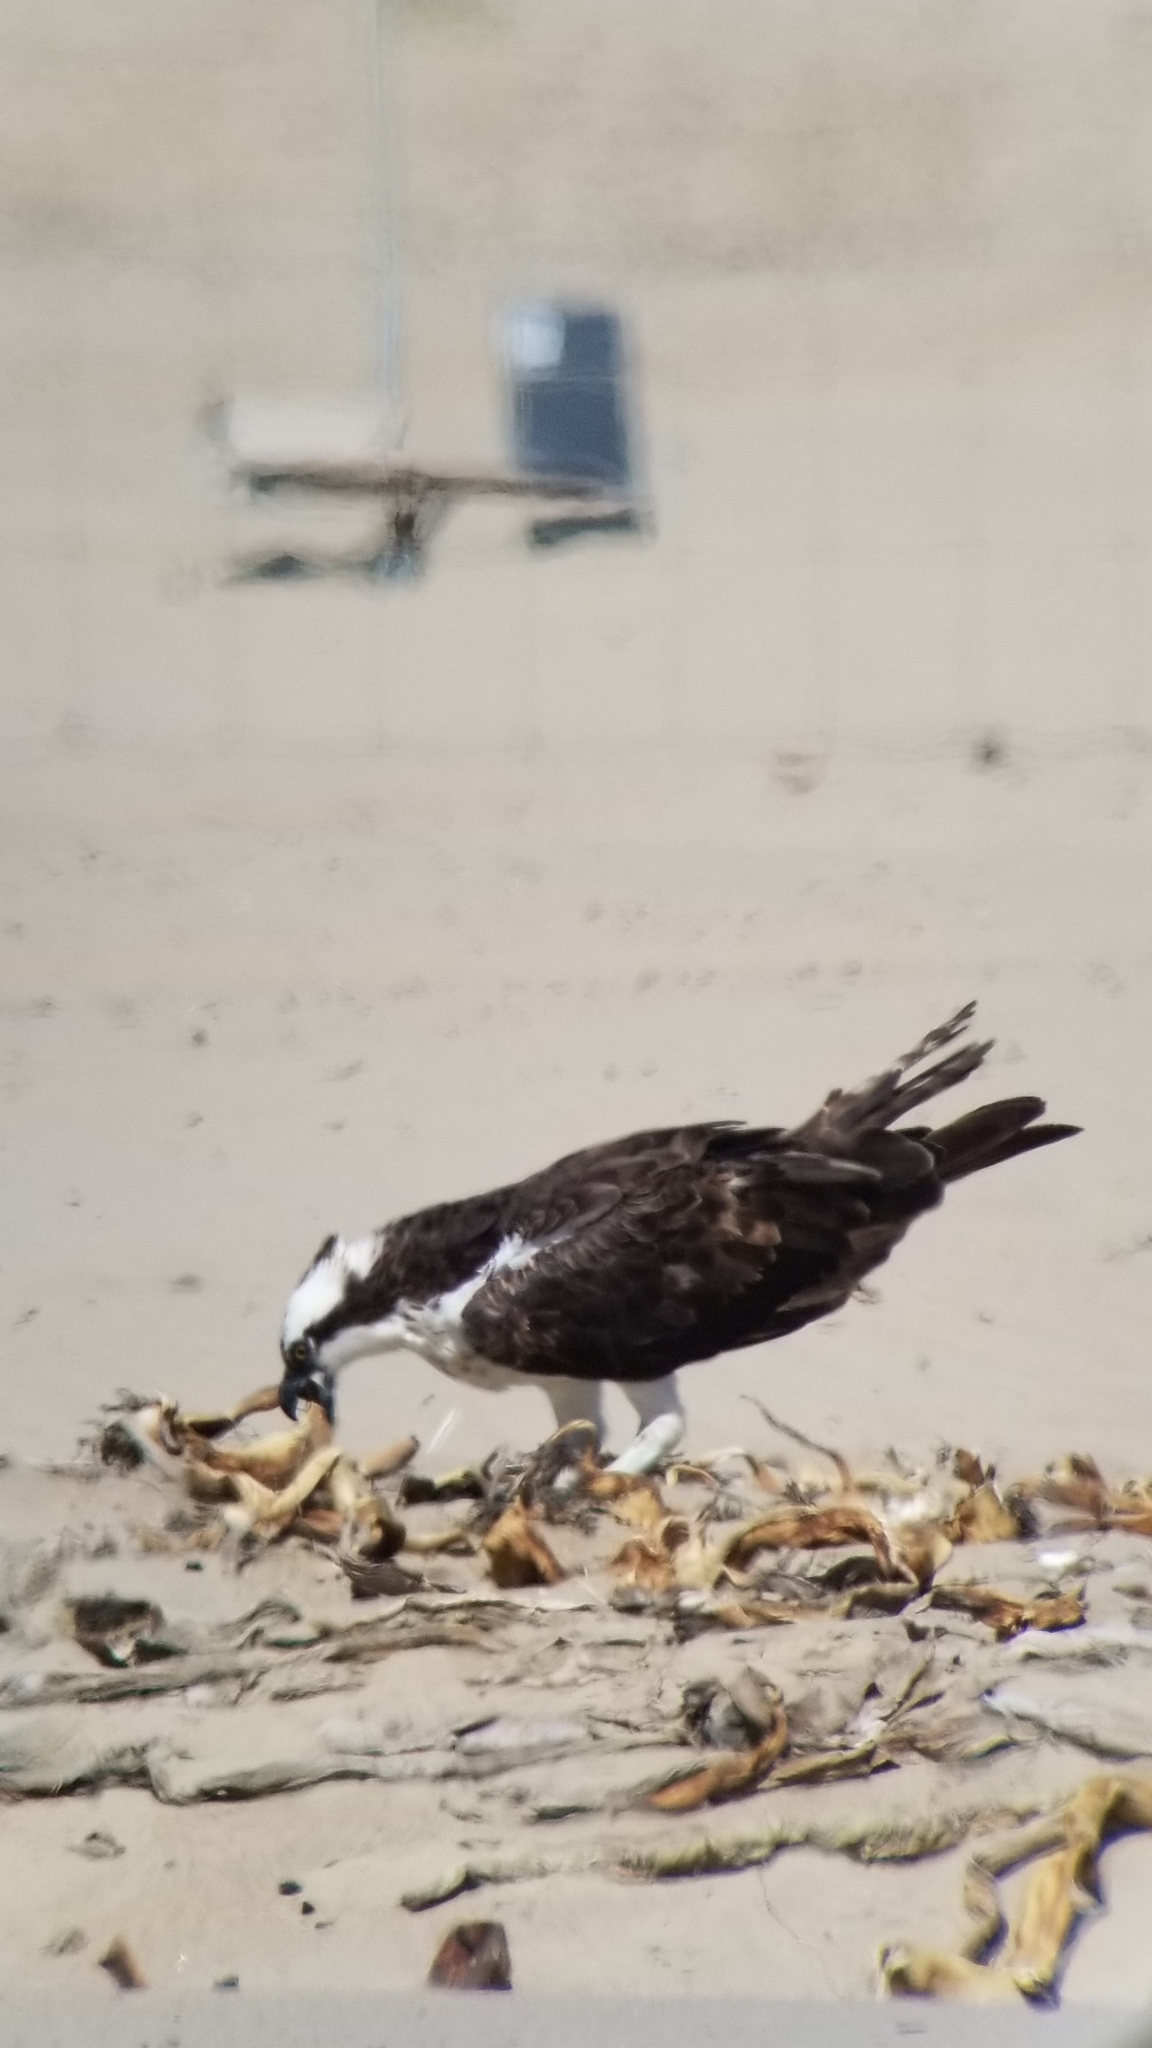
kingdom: Animalia
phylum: Chordata
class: Aves
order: Accipitriformes
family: Pandionidae
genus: Pandion
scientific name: Pandion haliaetus
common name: Osprey
